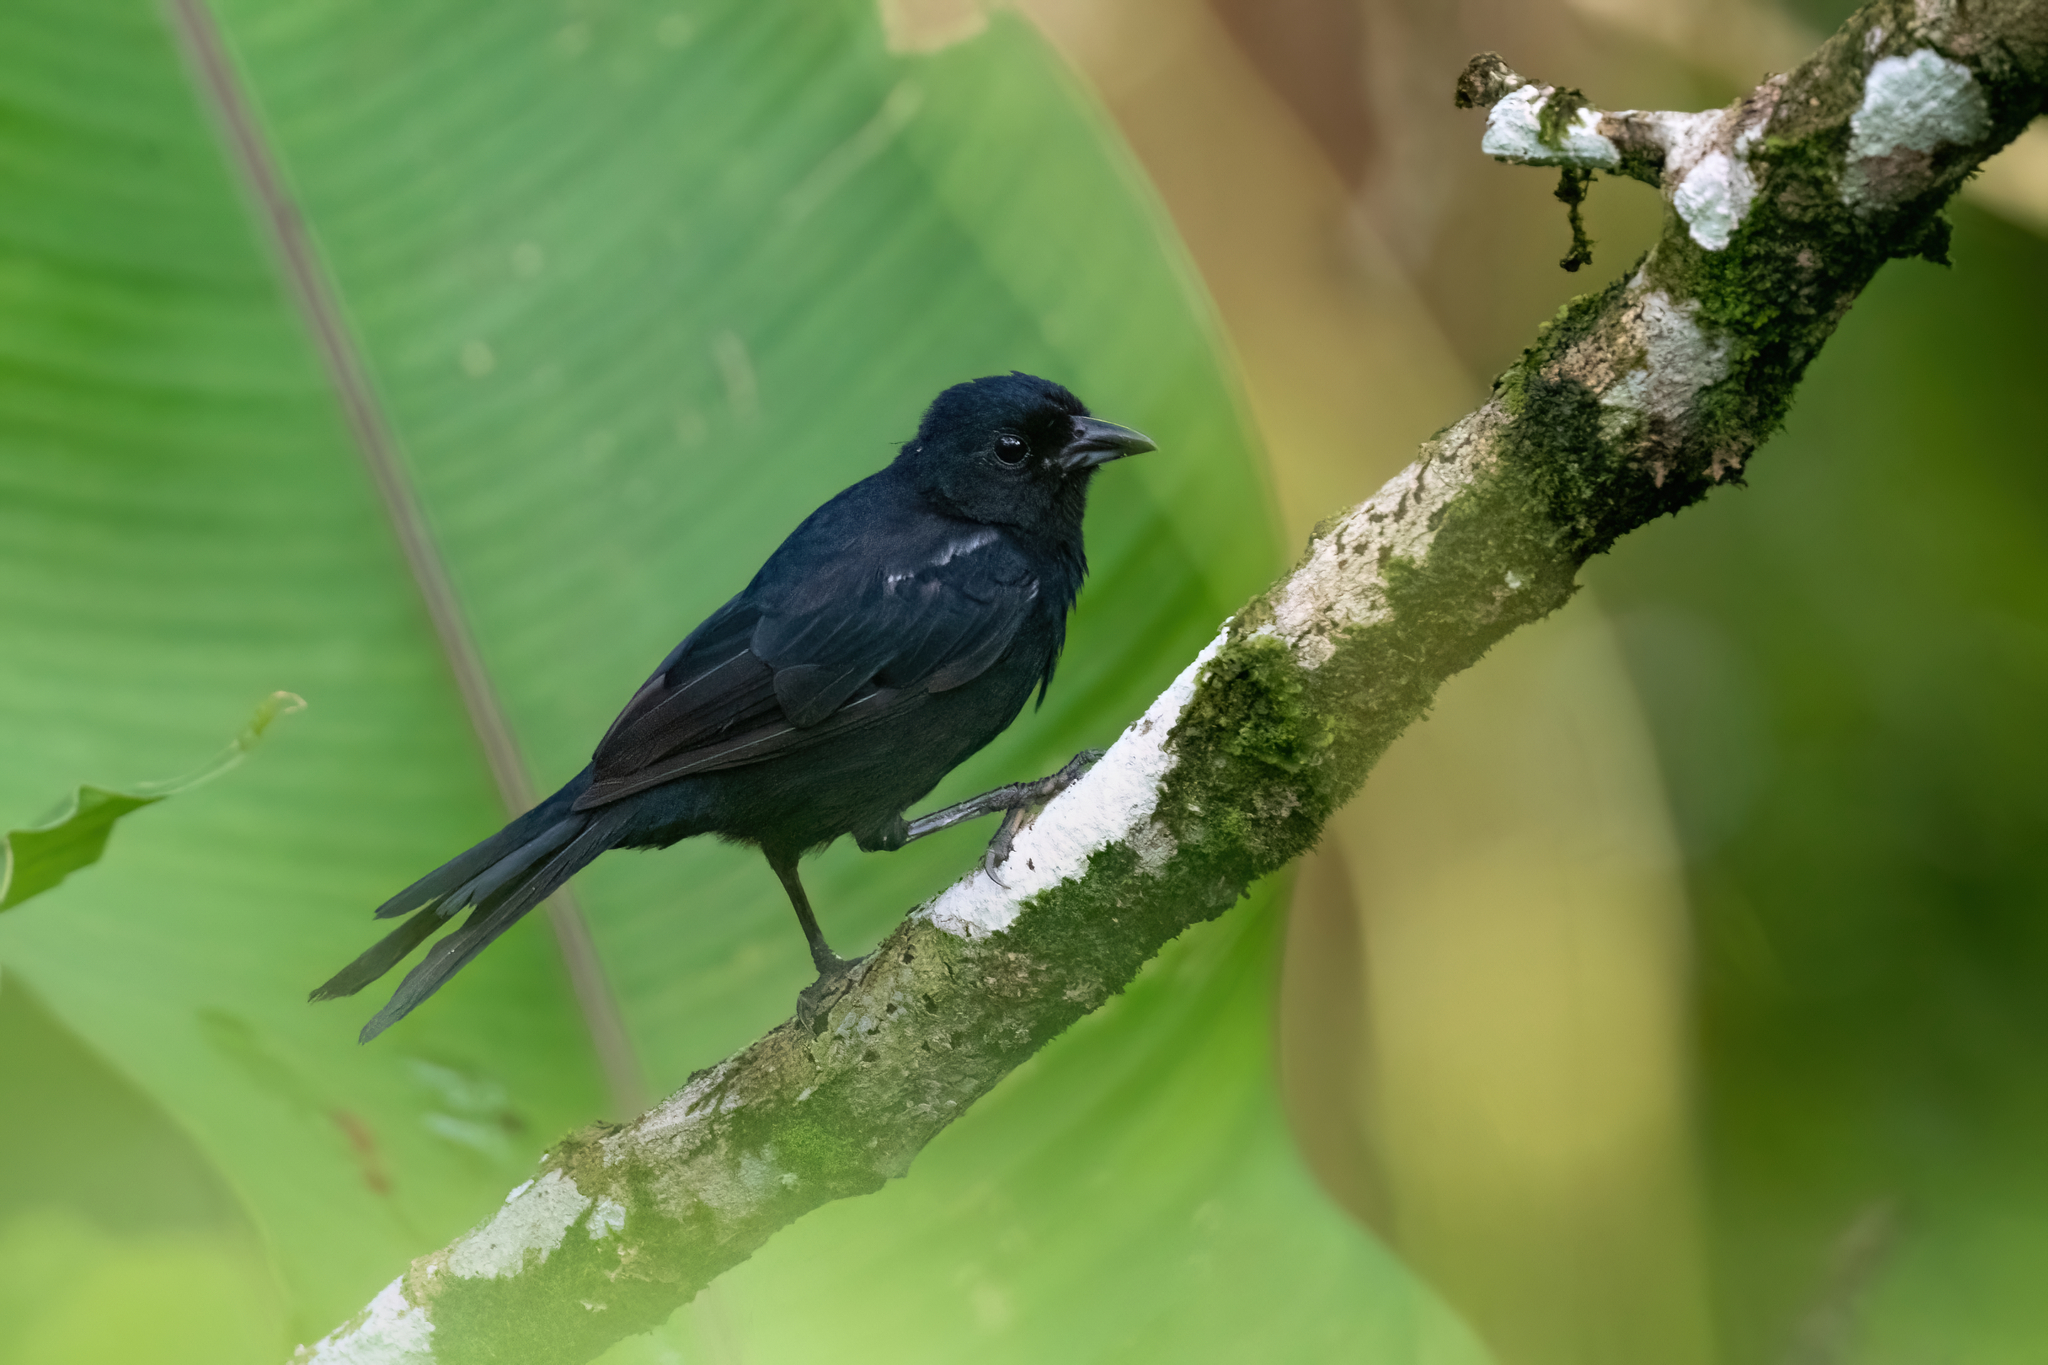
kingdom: Animalia
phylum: Chordata
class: Aves
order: Passeriformes
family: Thraupidae
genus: Tachyphonus
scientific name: Tachyphonus rufus
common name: White-lined tanager
